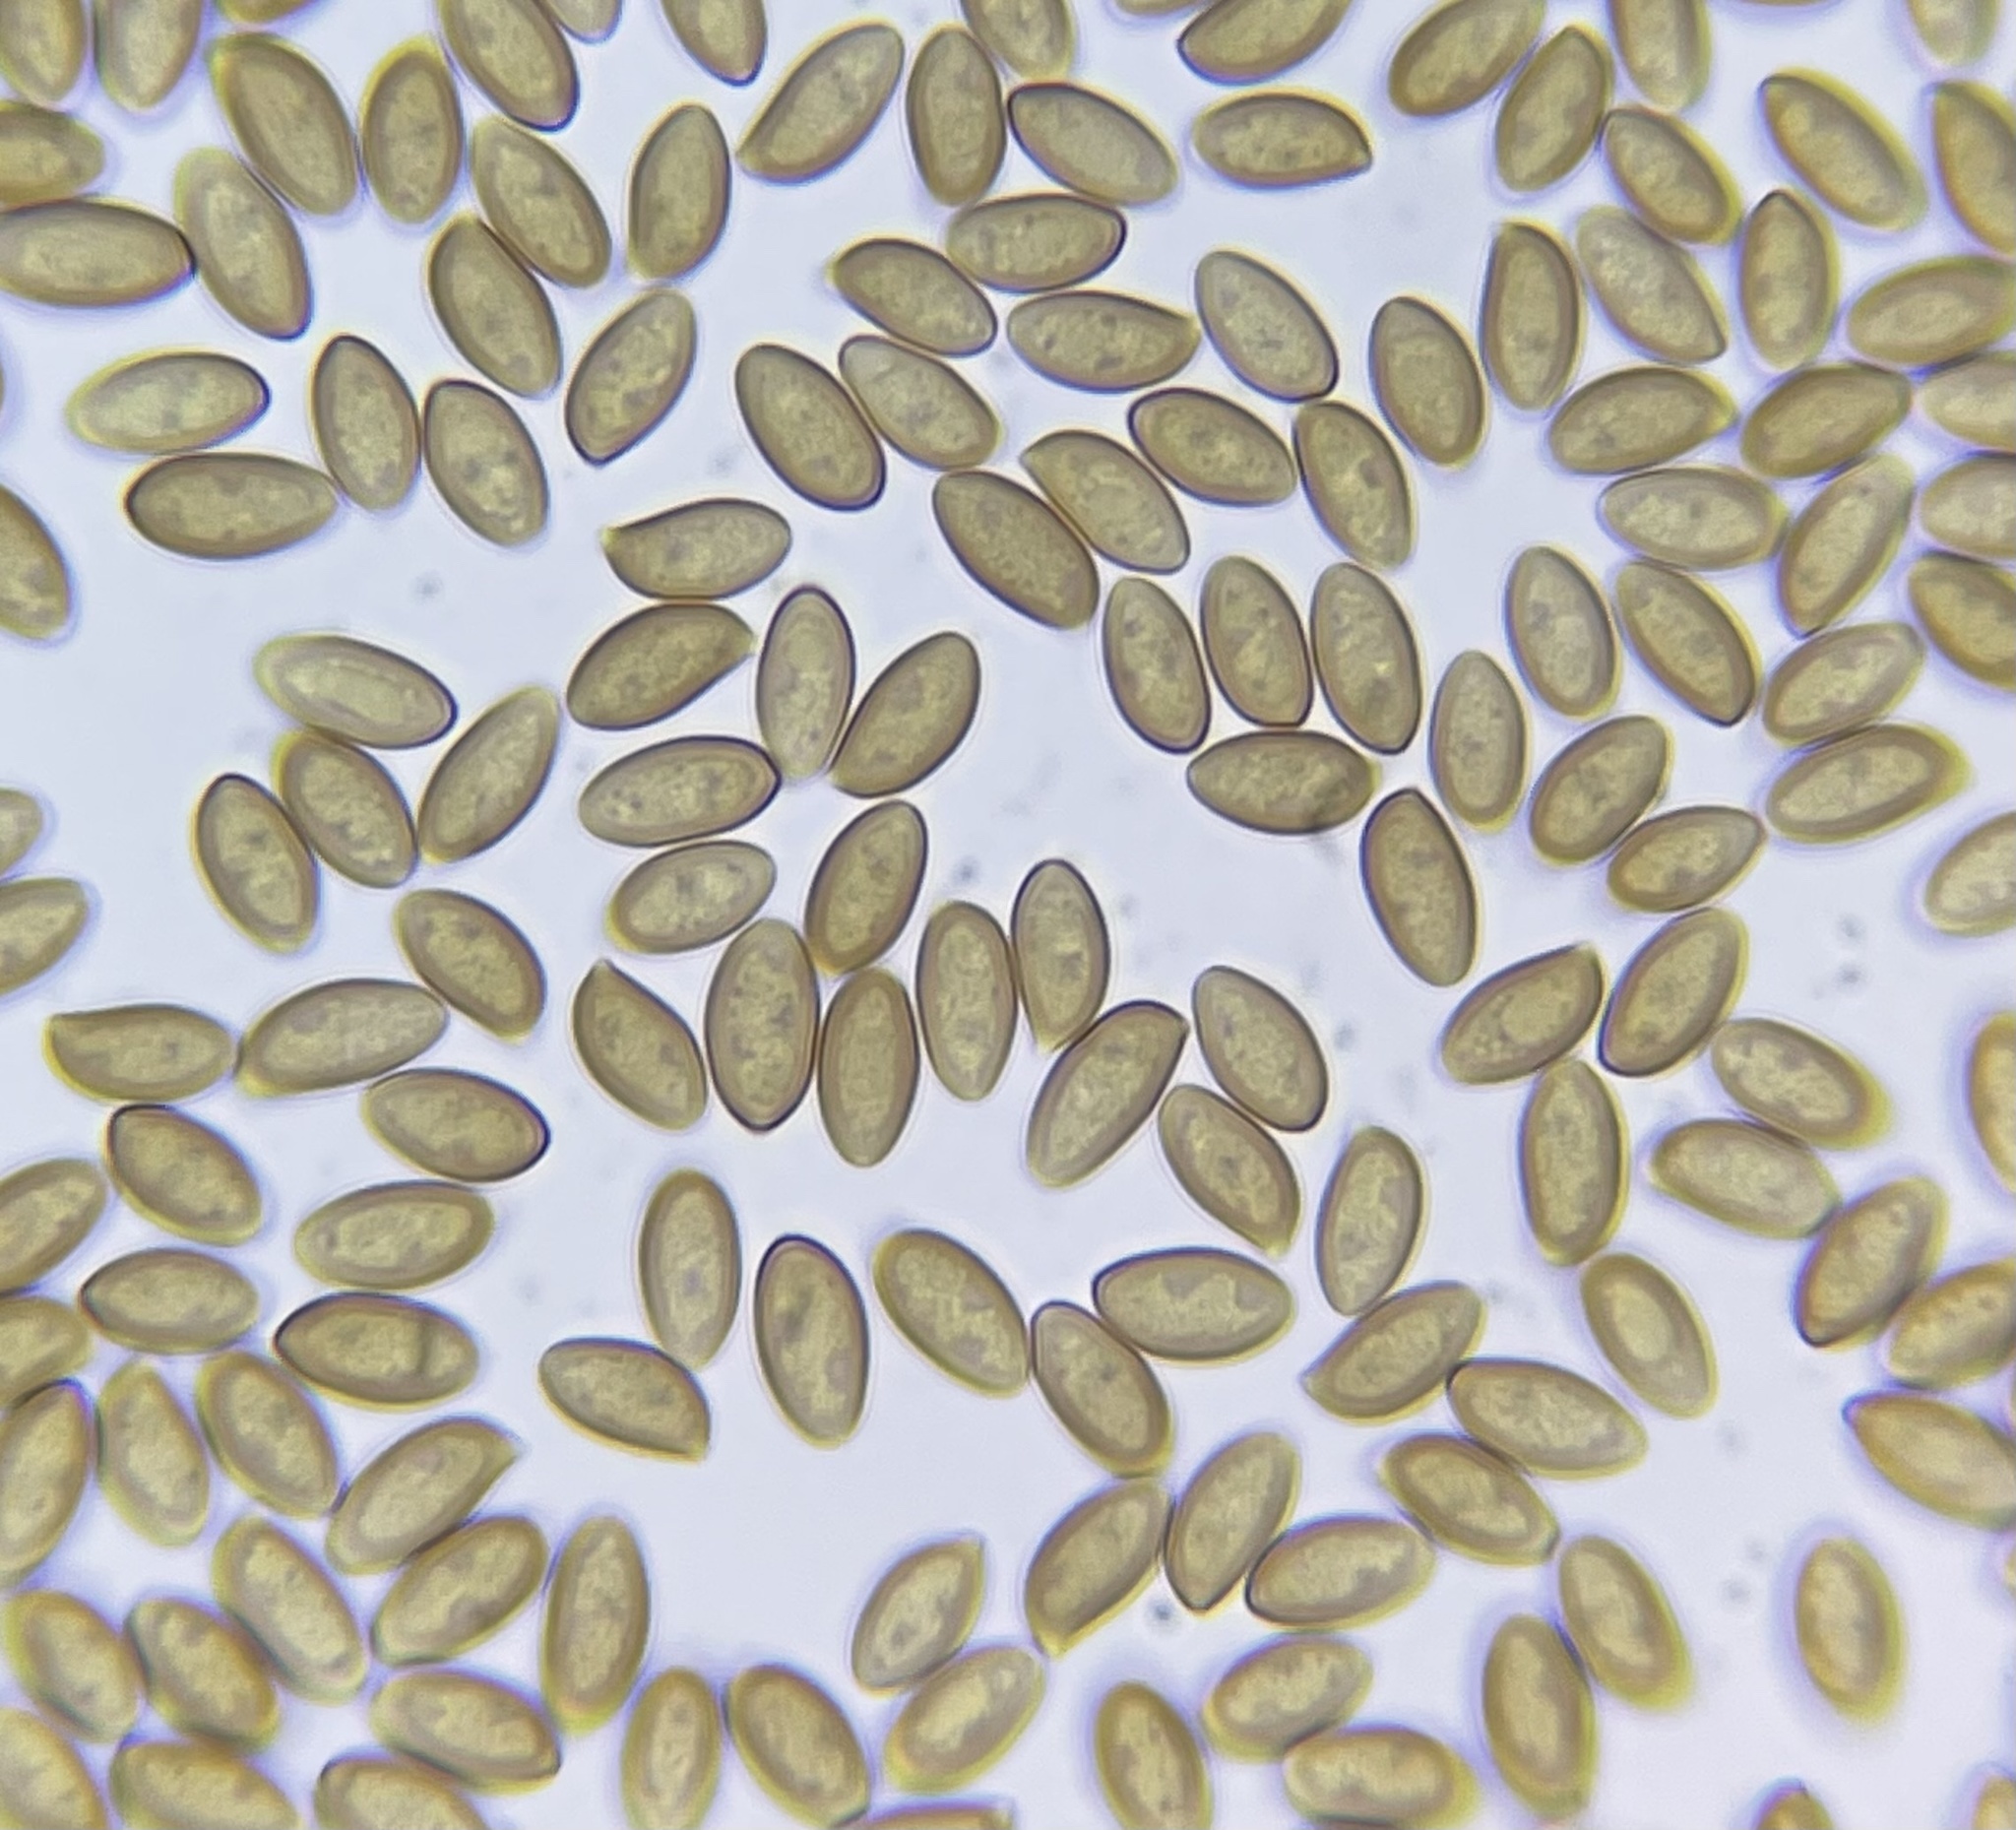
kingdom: Fungi
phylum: Basidiomycota
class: Agaricomycetes
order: Agaricales
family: Hymenogastraceae
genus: Flammula
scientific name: Flammula alnicola
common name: Alder scalycap
